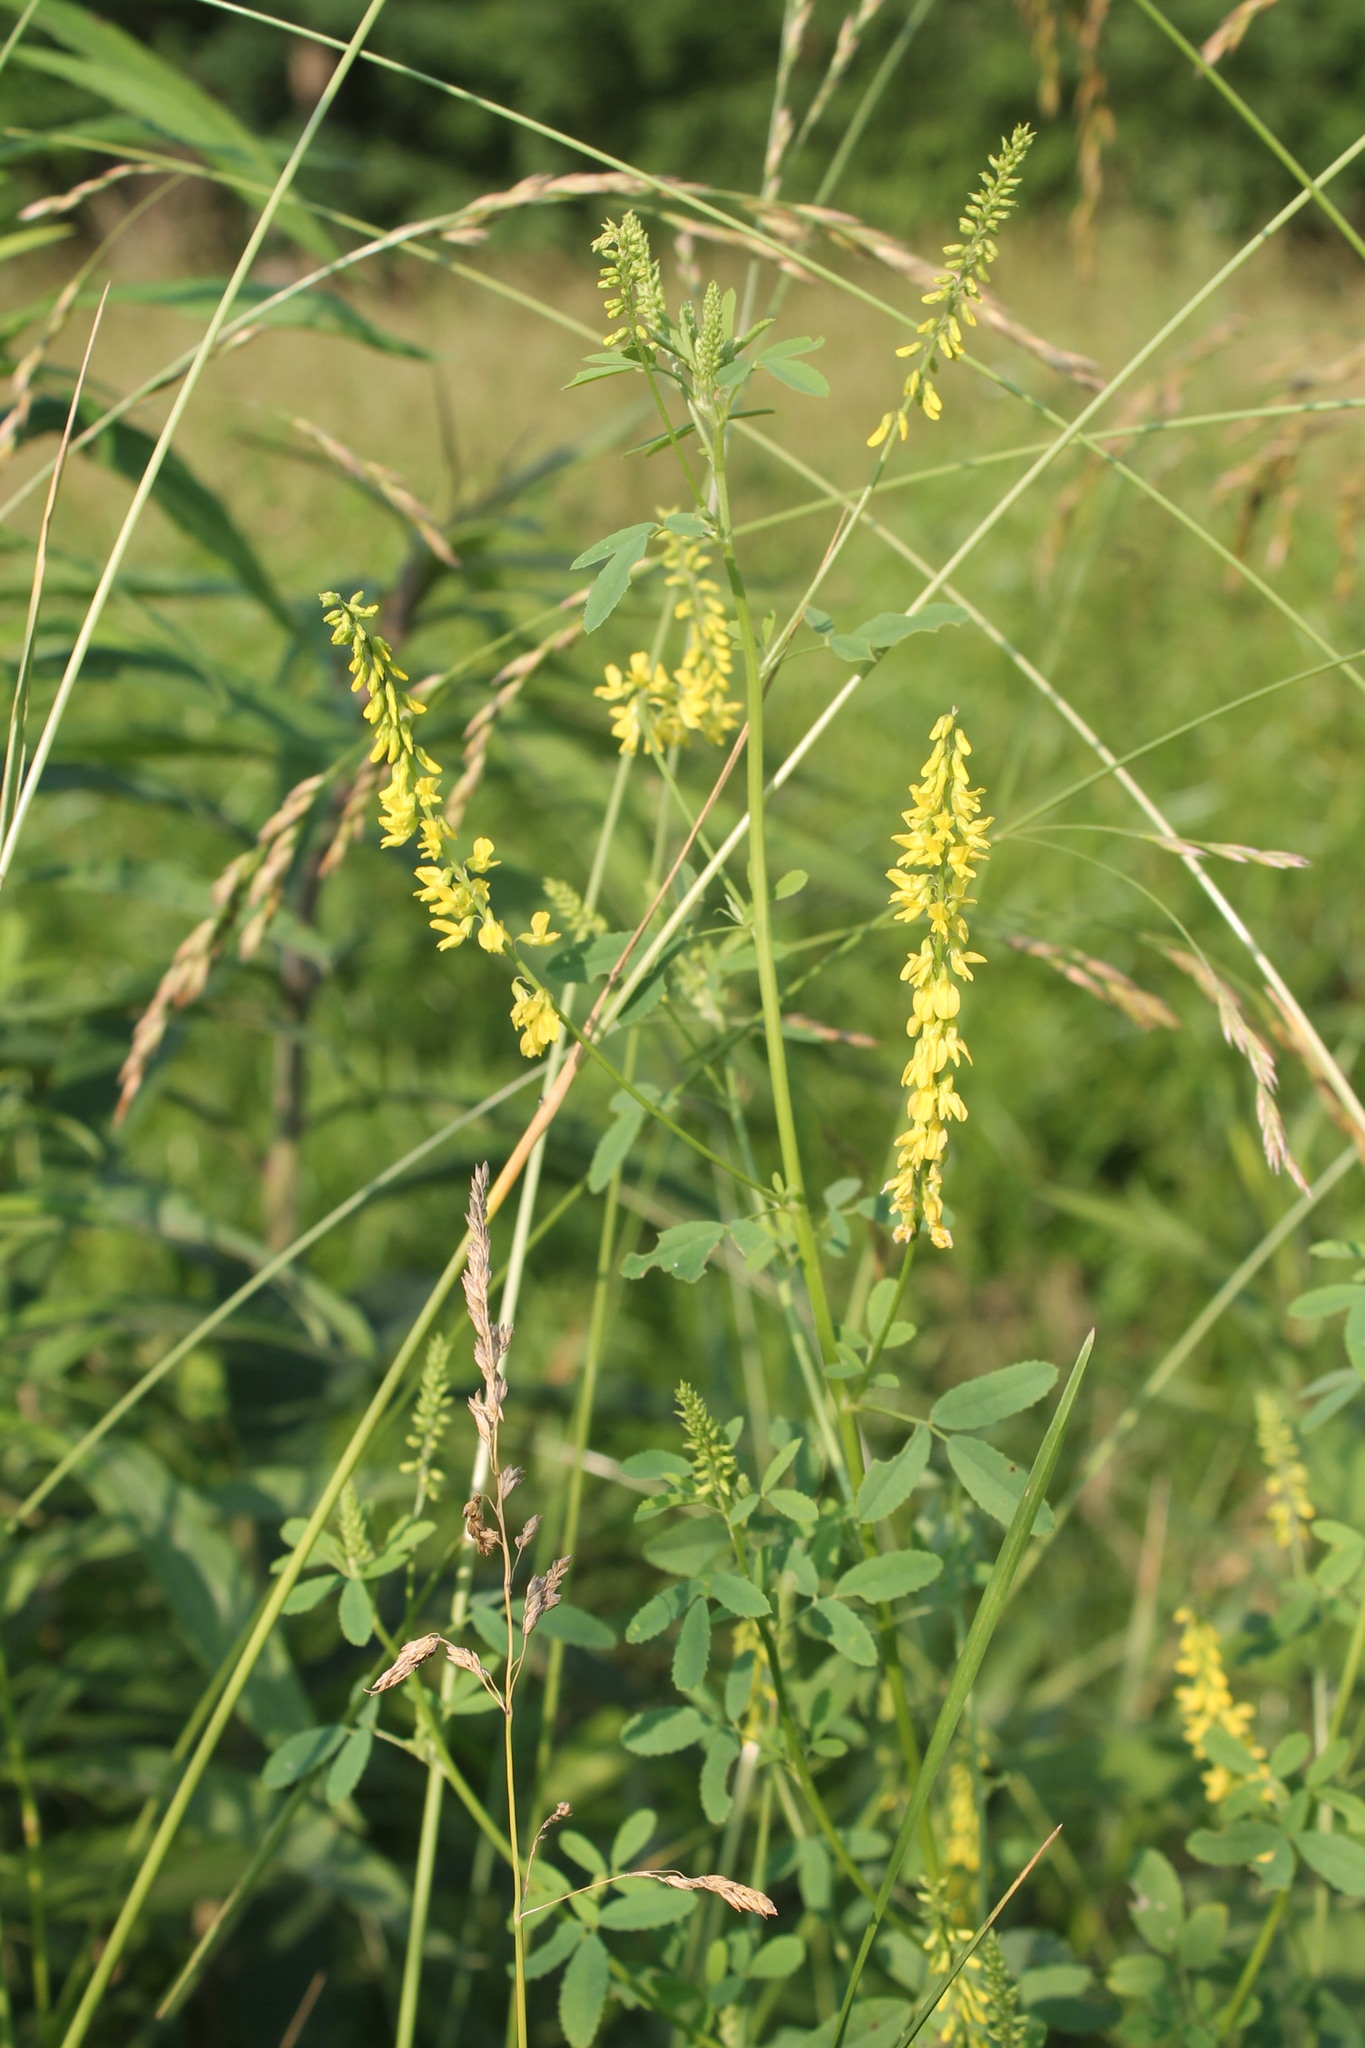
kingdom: Plantae
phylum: Tracheophyta
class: Magnoliopsida
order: Fabales
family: Fabaceae
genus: Melilotus
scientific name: Melilotus officinalis
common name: Sweetclover
